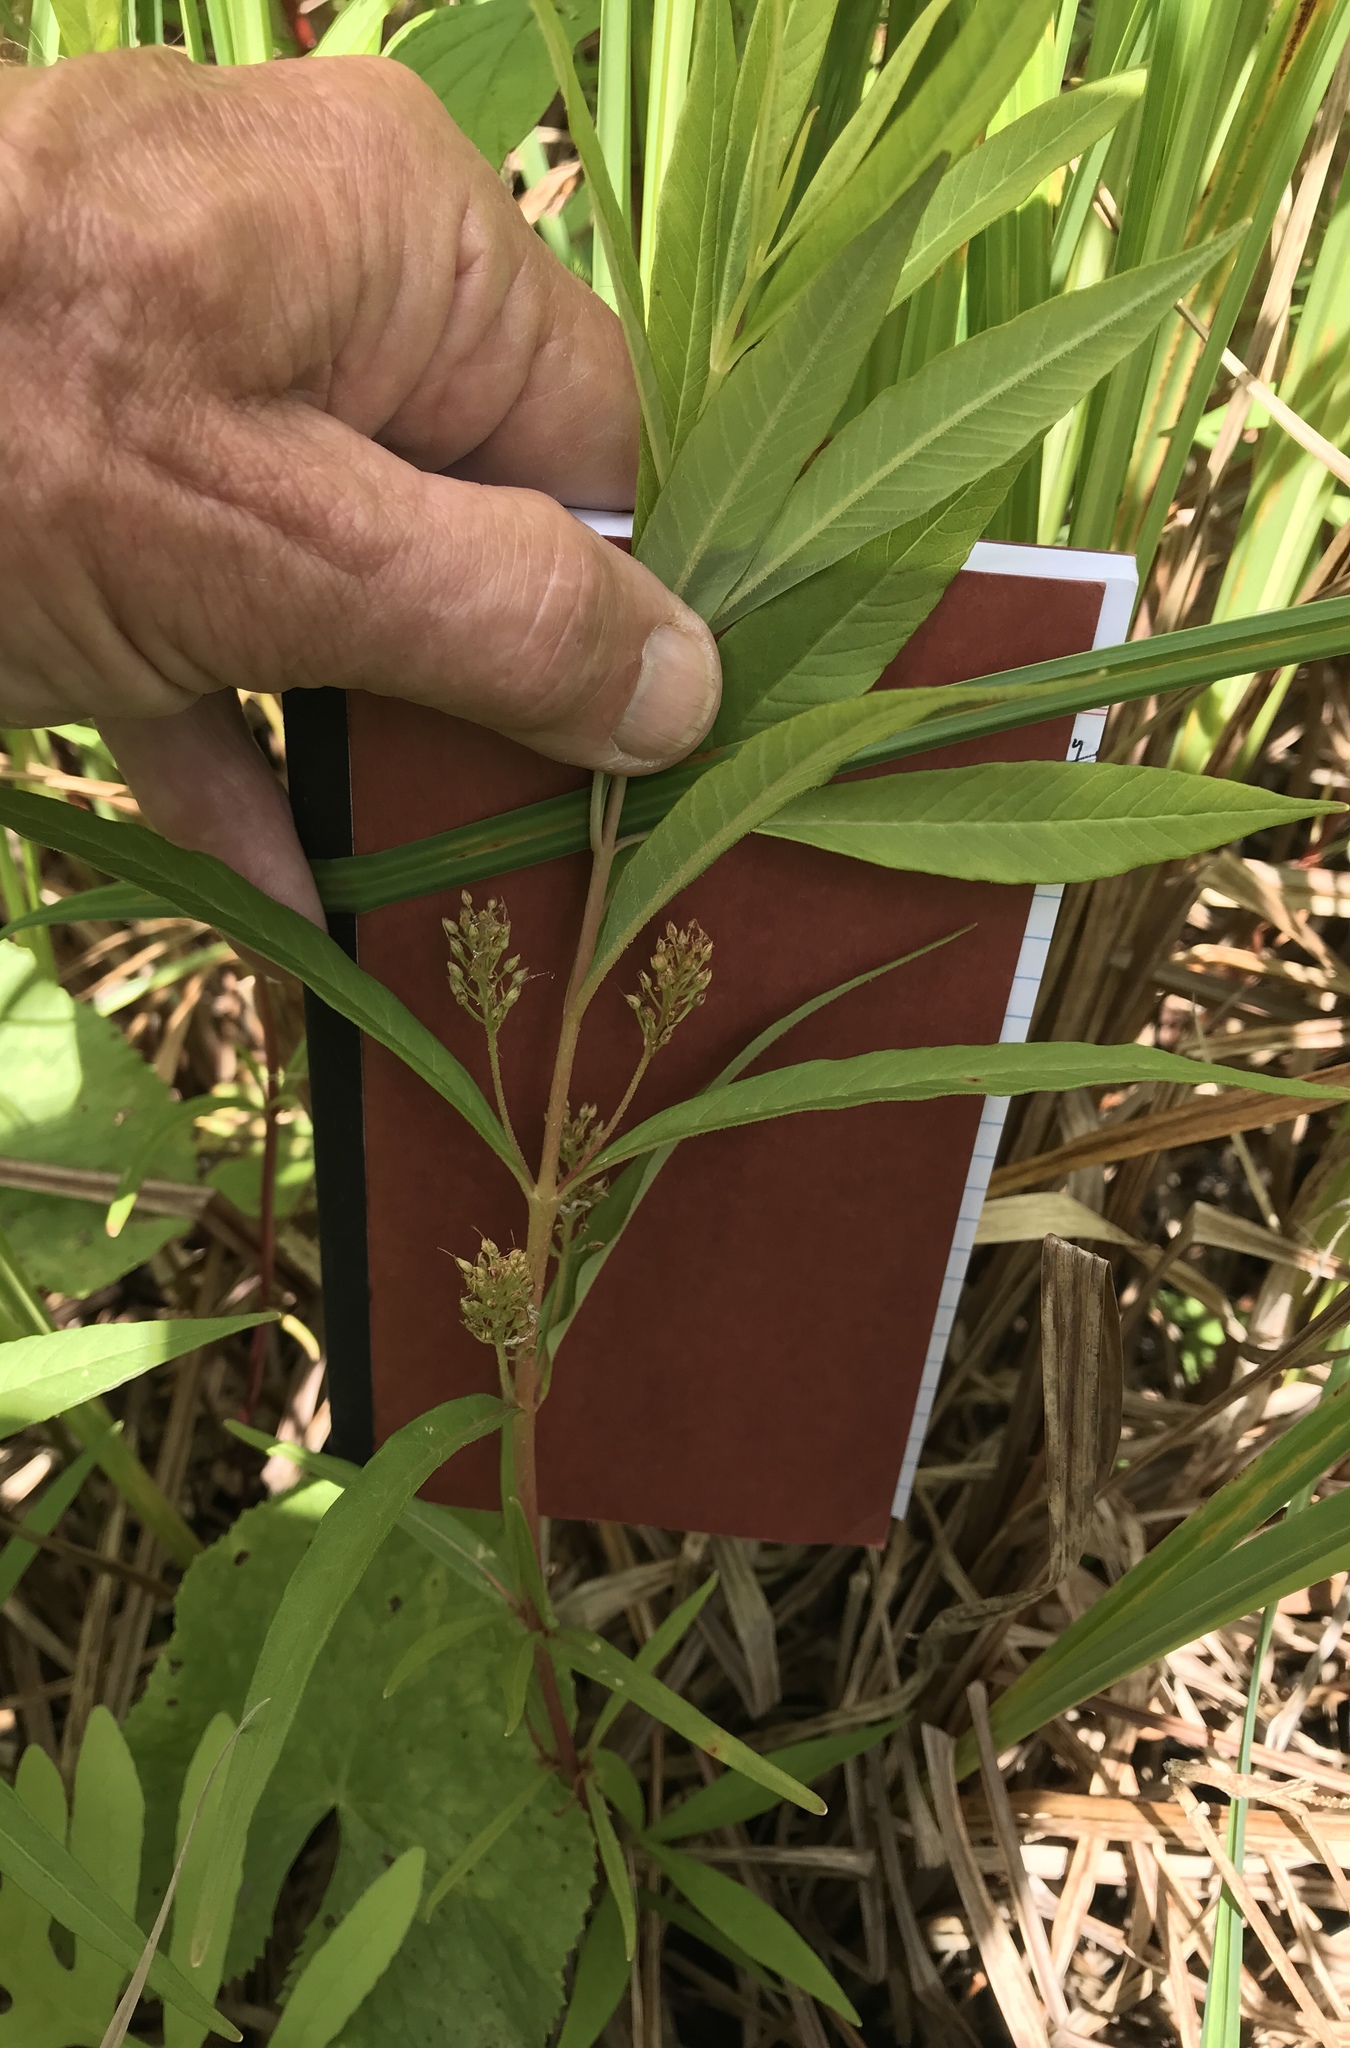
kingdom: Plantae
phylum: Tracheophyta
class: Magnoliopsida
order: Ericales
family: Primulaceae
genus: Lysimachia
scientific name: Lysimachia thyrsiflora
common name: Tufted loosestrife
